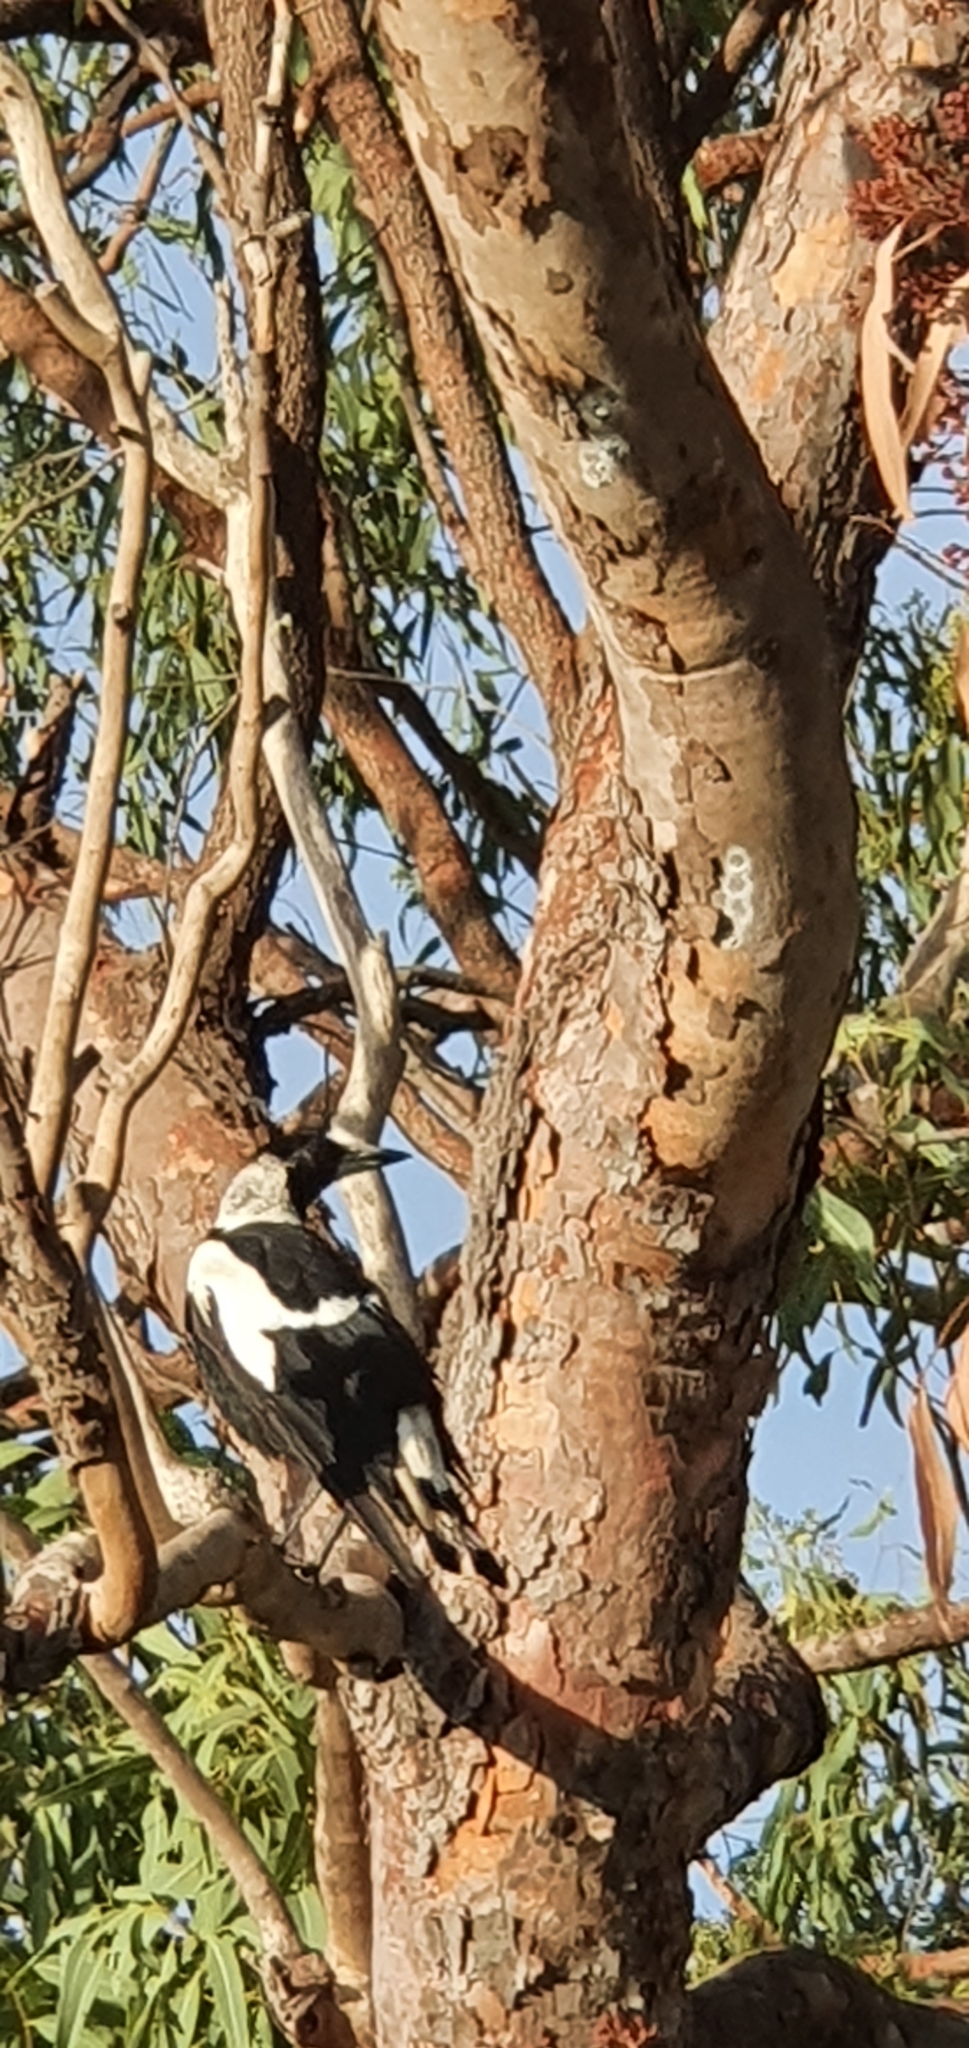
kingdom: Animalia
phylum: Chordata
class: Aves
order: Passeriformes
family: Cracticidae
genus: Gymnorhina
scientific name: Gymnorhina tibicen
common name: Australian magpie
